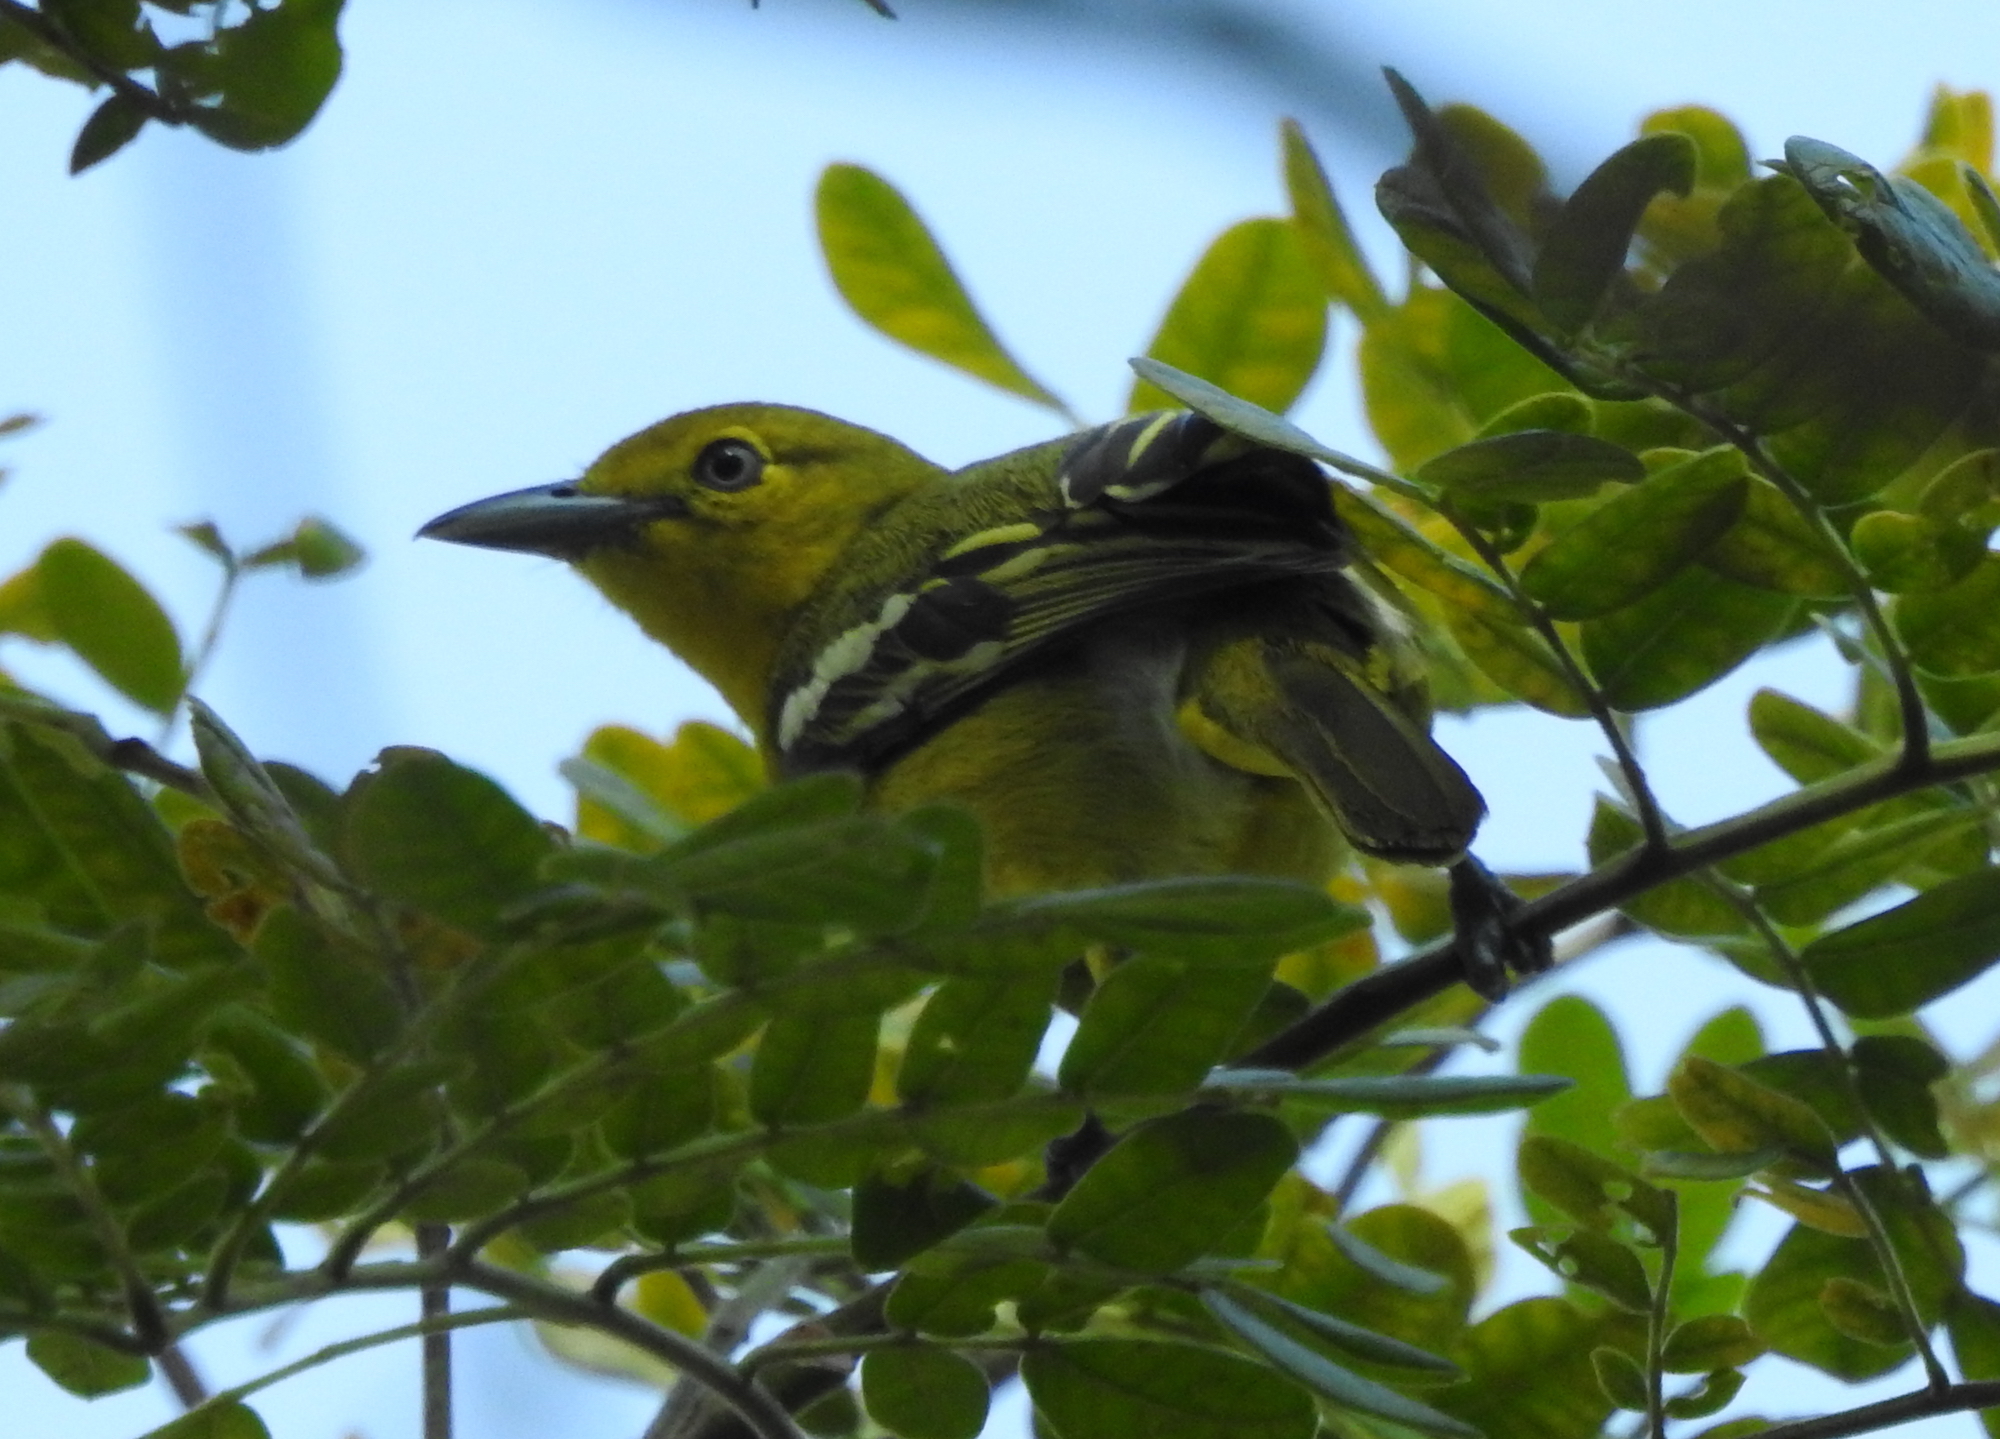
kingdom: Animalia
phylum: Chordata
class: Aves
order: Passeriformes
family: Aegithinidae
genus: Aegithina
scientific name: Aegithina tiphia
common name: Common iora
